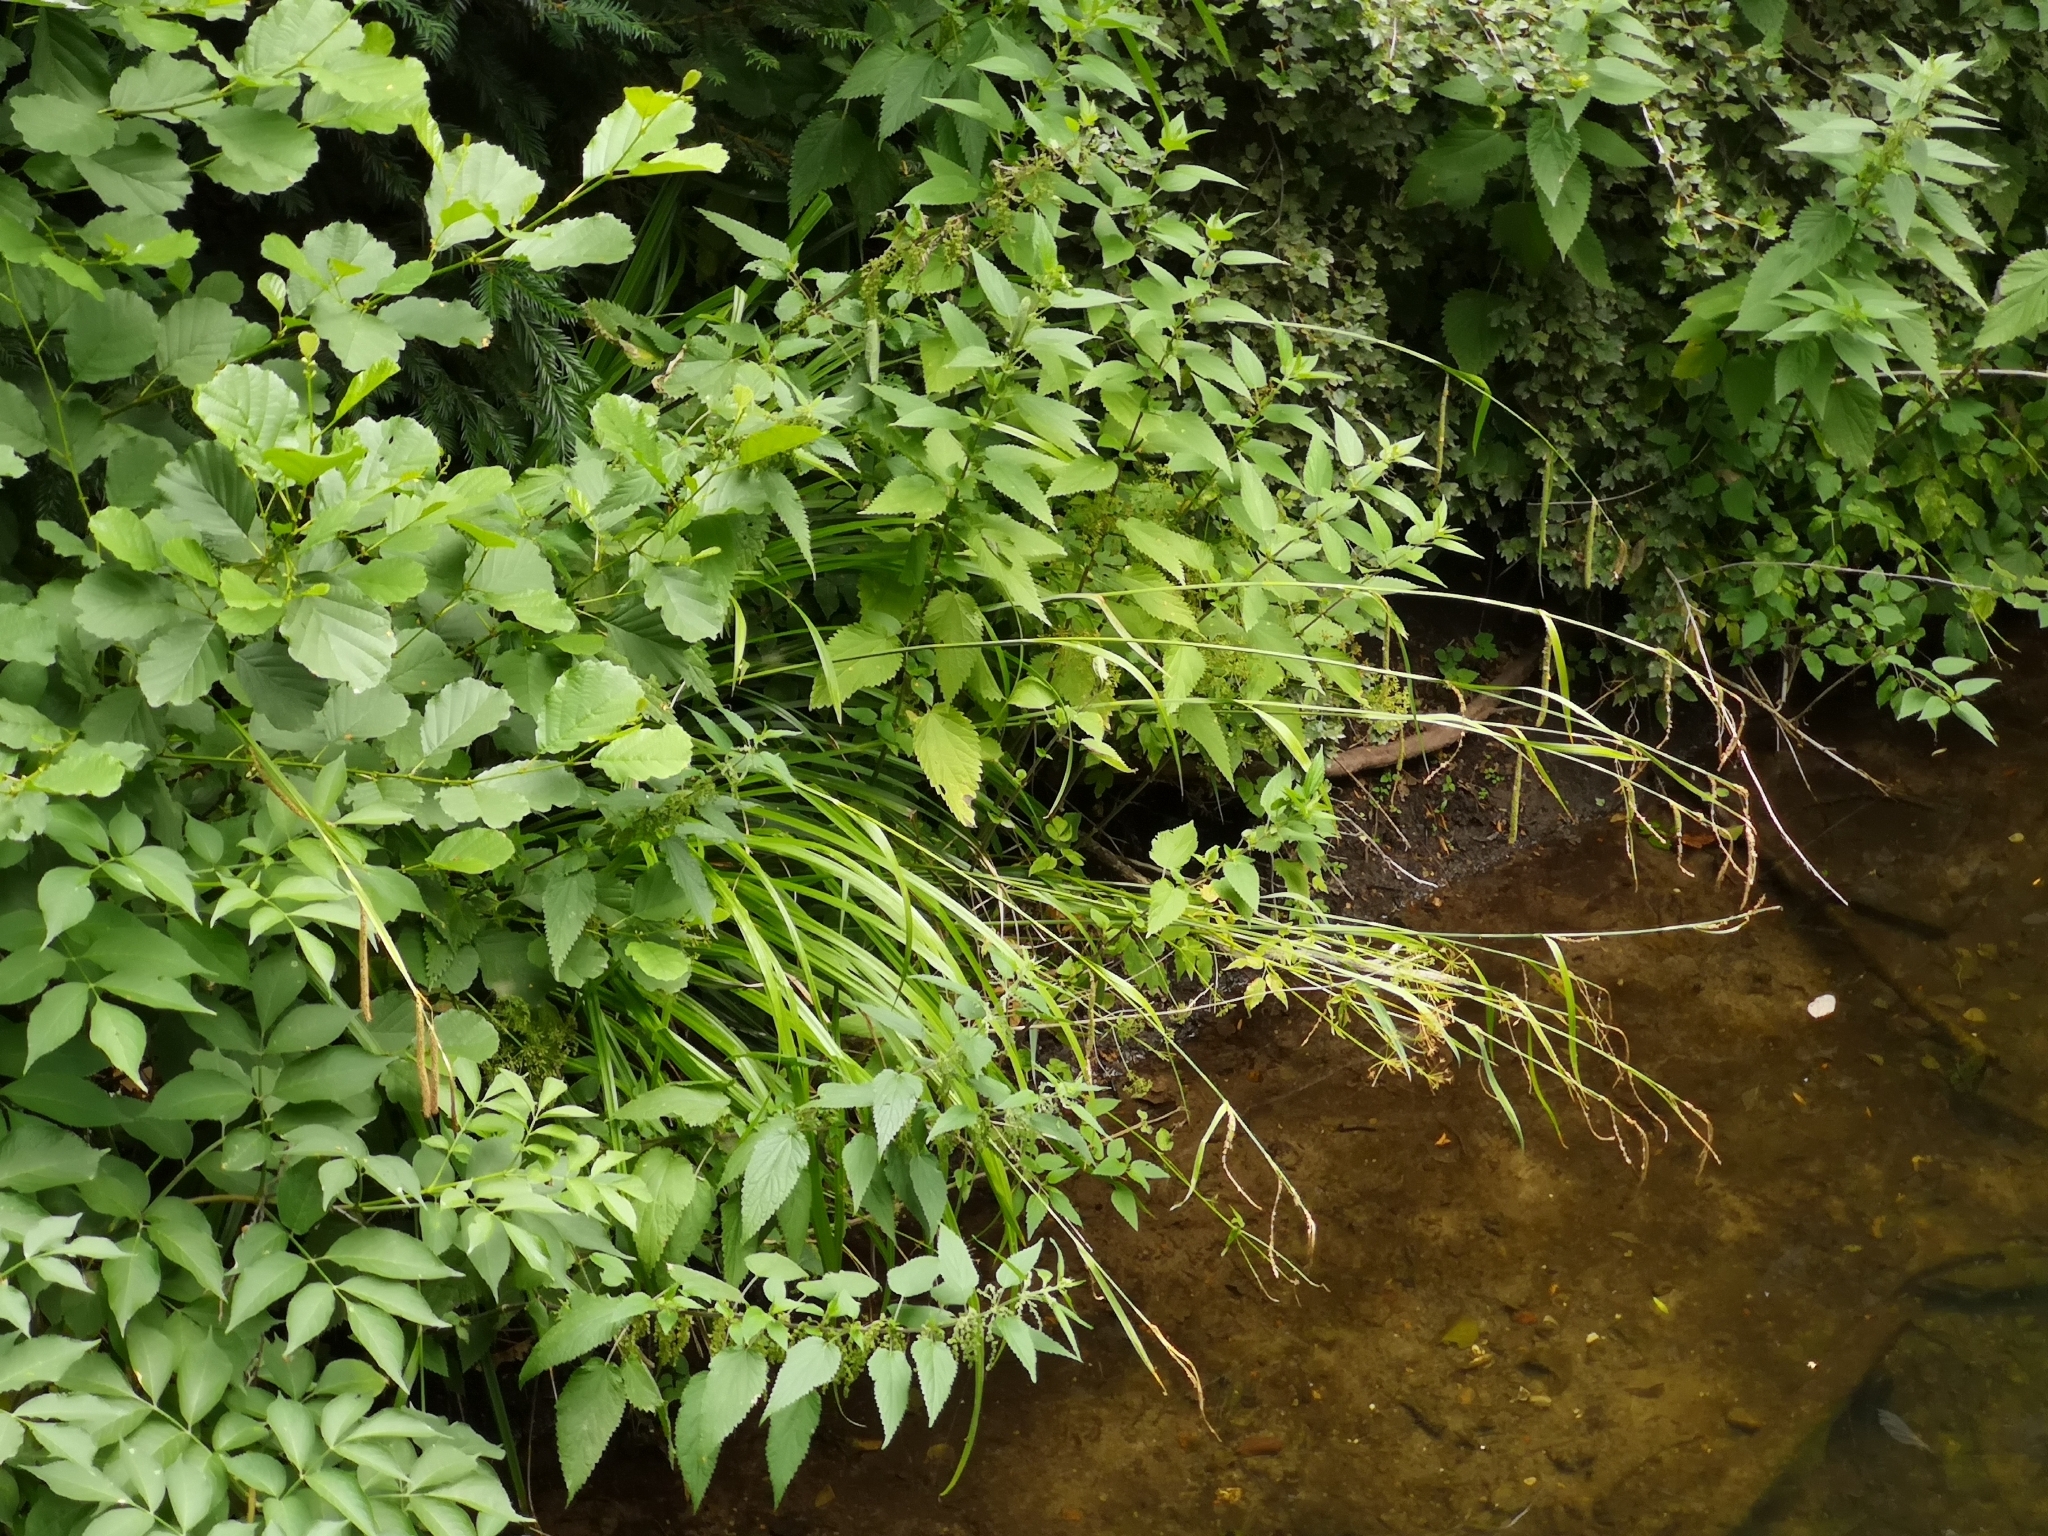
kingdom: Plantae
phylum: Tracheophyta
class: Liliopsida
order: Poales
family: Cyperaceae
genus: Carex
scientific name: Carex pendula
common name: Pendulous sedge
